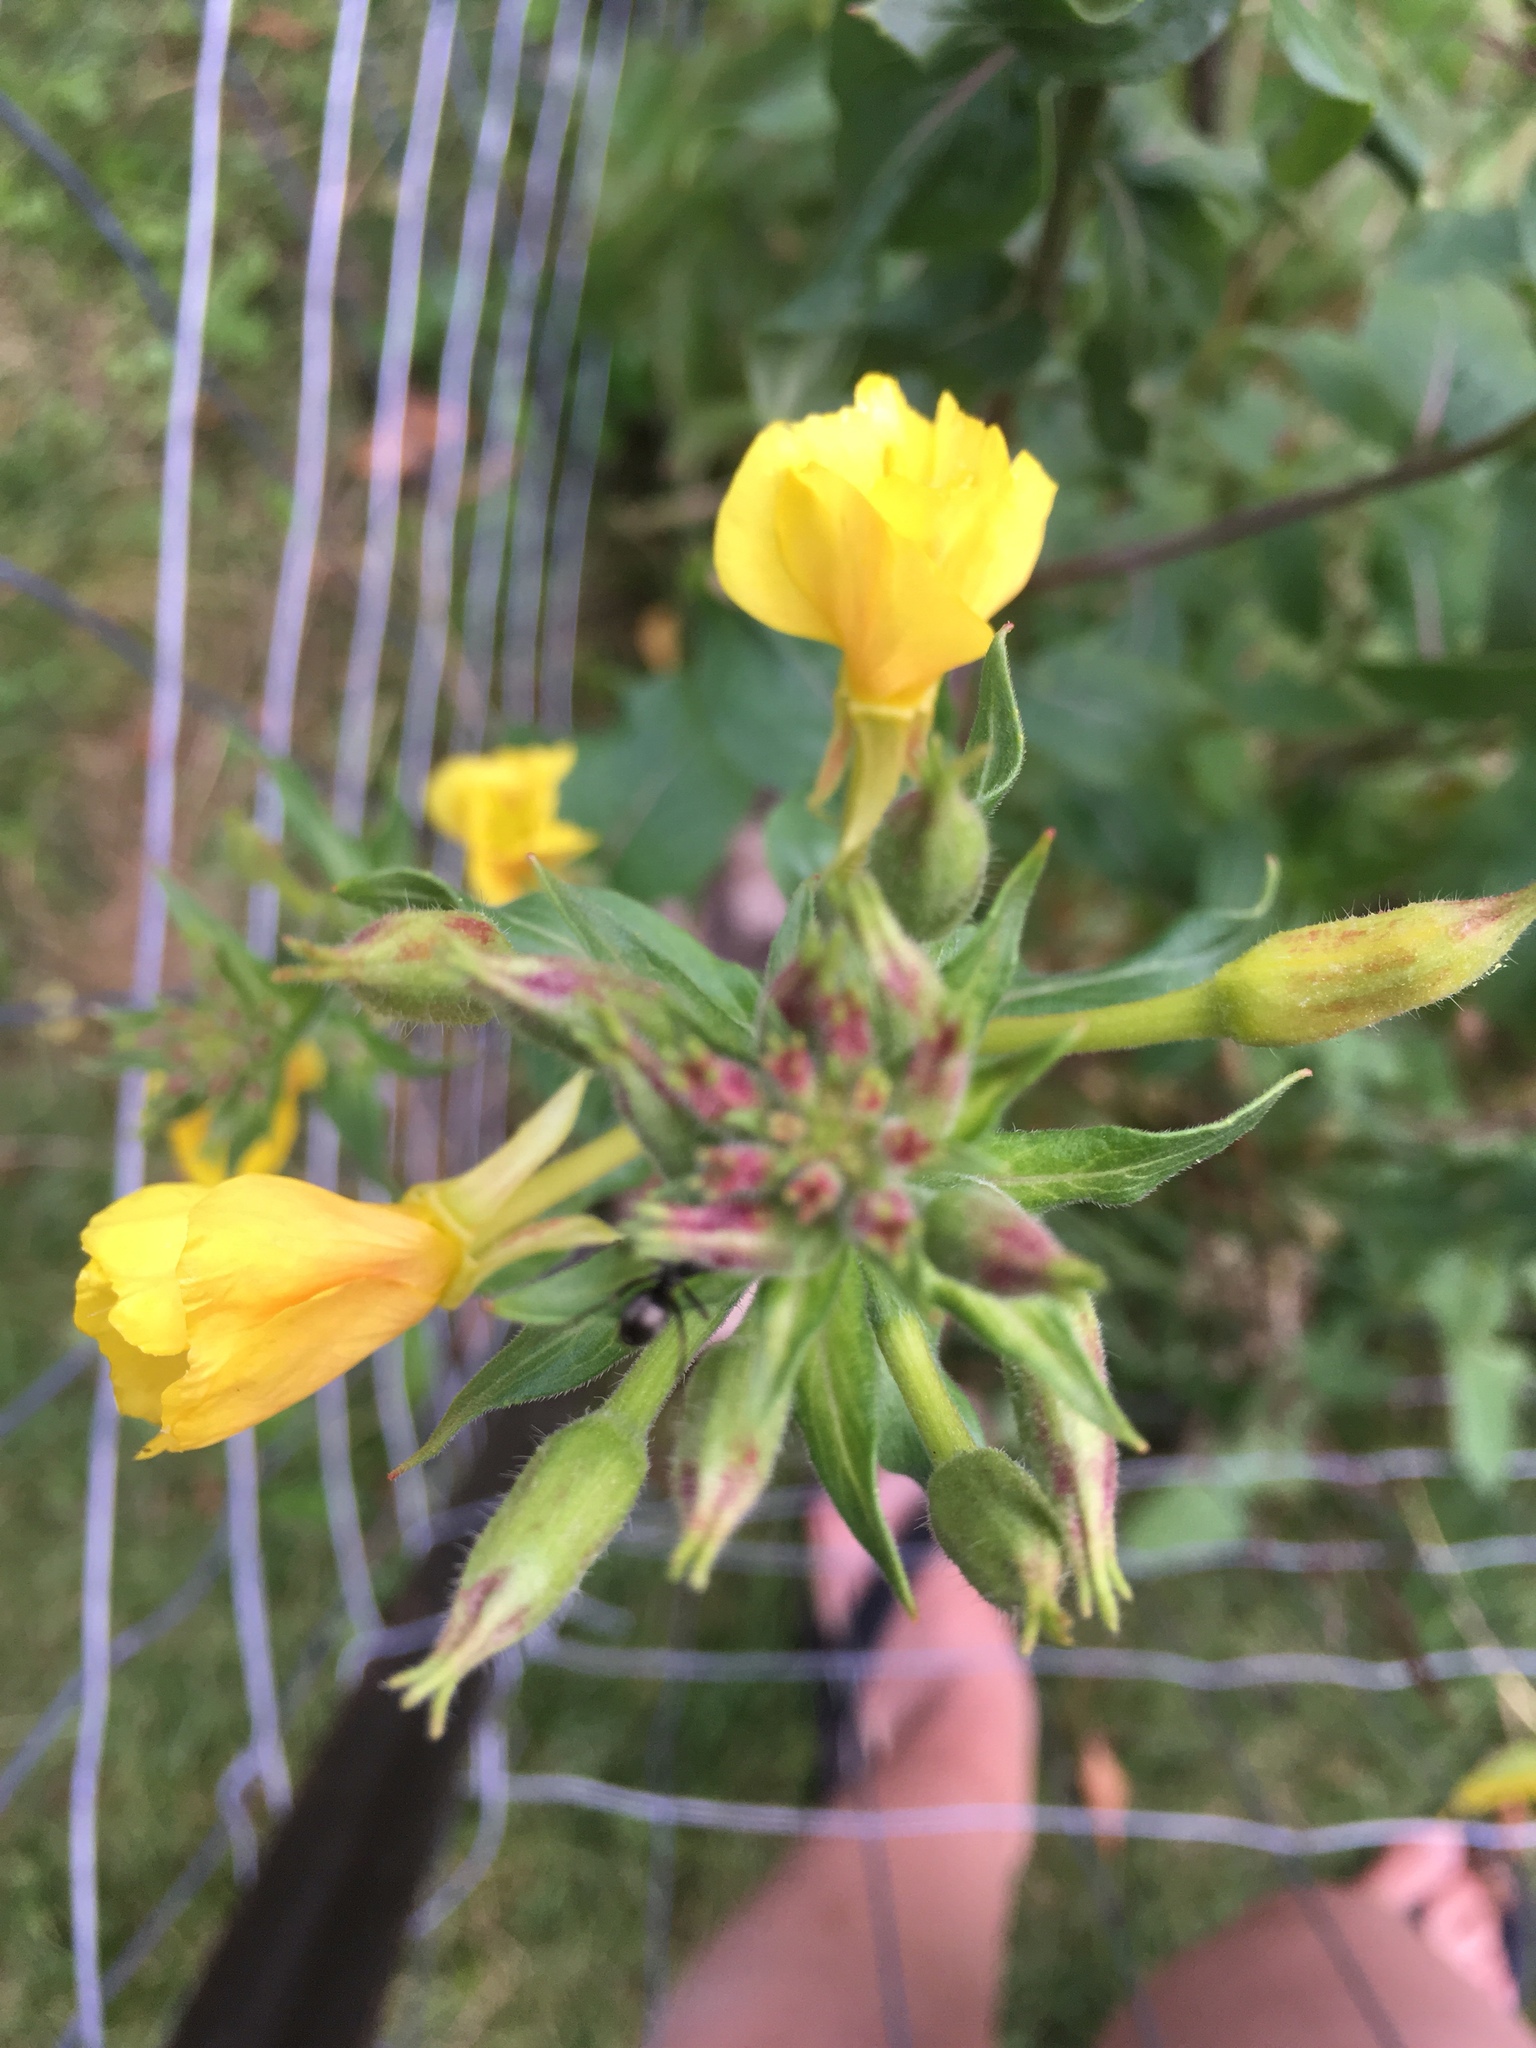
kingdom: Plantae
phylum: Tracheophyta
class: Magnoliopsida
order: Myrtales
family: Onagraceae
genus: Oenothera
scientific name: Oenothera parviflora
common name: Least evening-primrose
